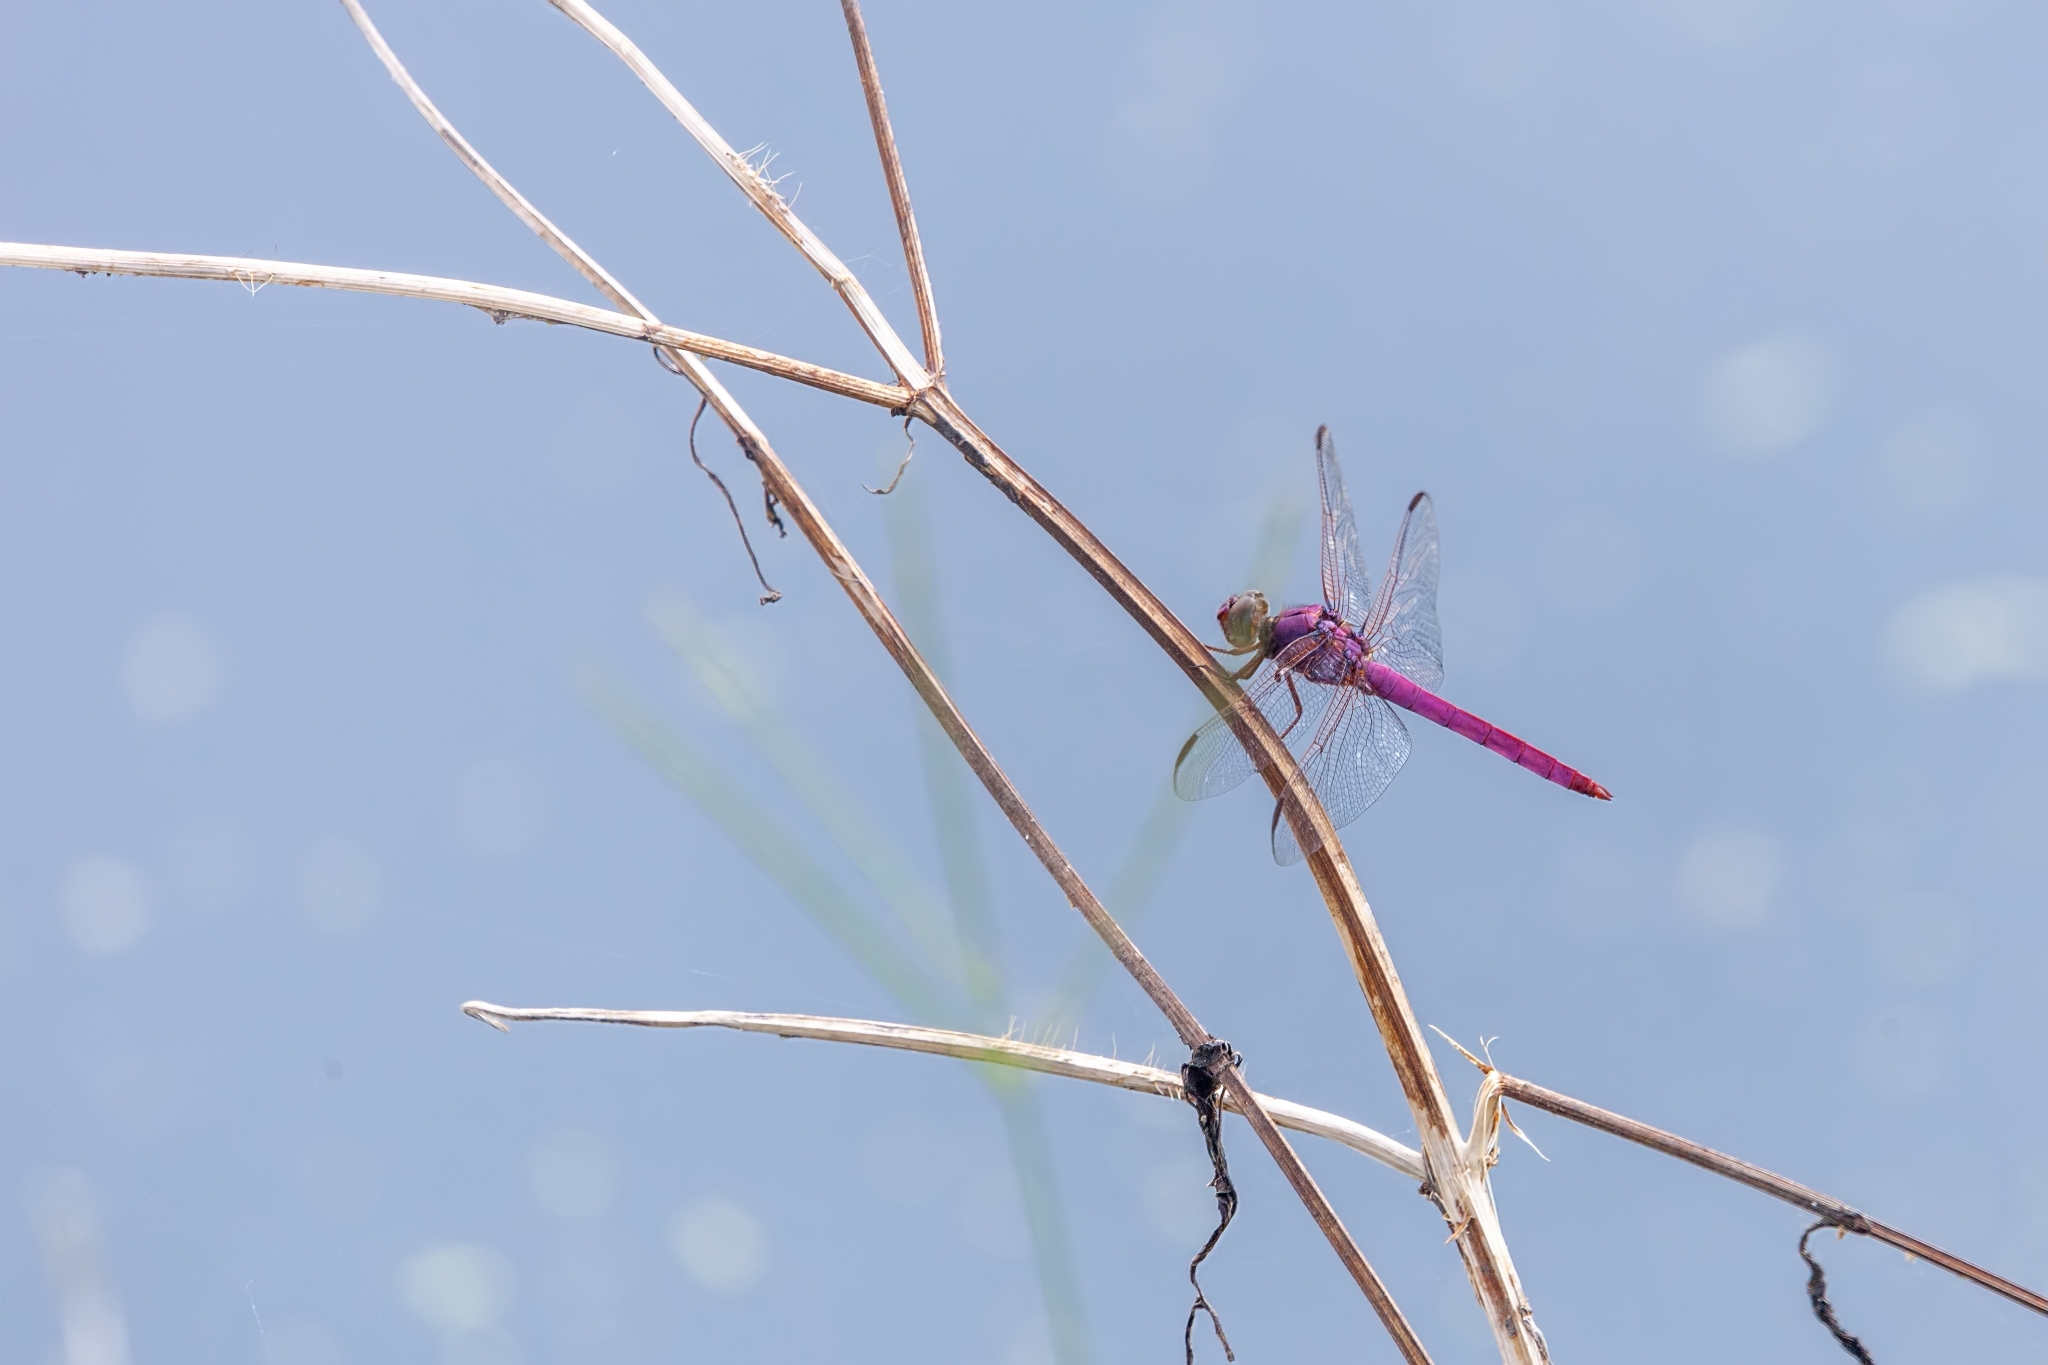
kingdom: Animalia
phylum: Arthropoda
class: Insecta
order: Odonata
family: Libellulidae
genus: Orthemis
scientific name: Orthemis ferruginea
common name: Roseate skimmer
